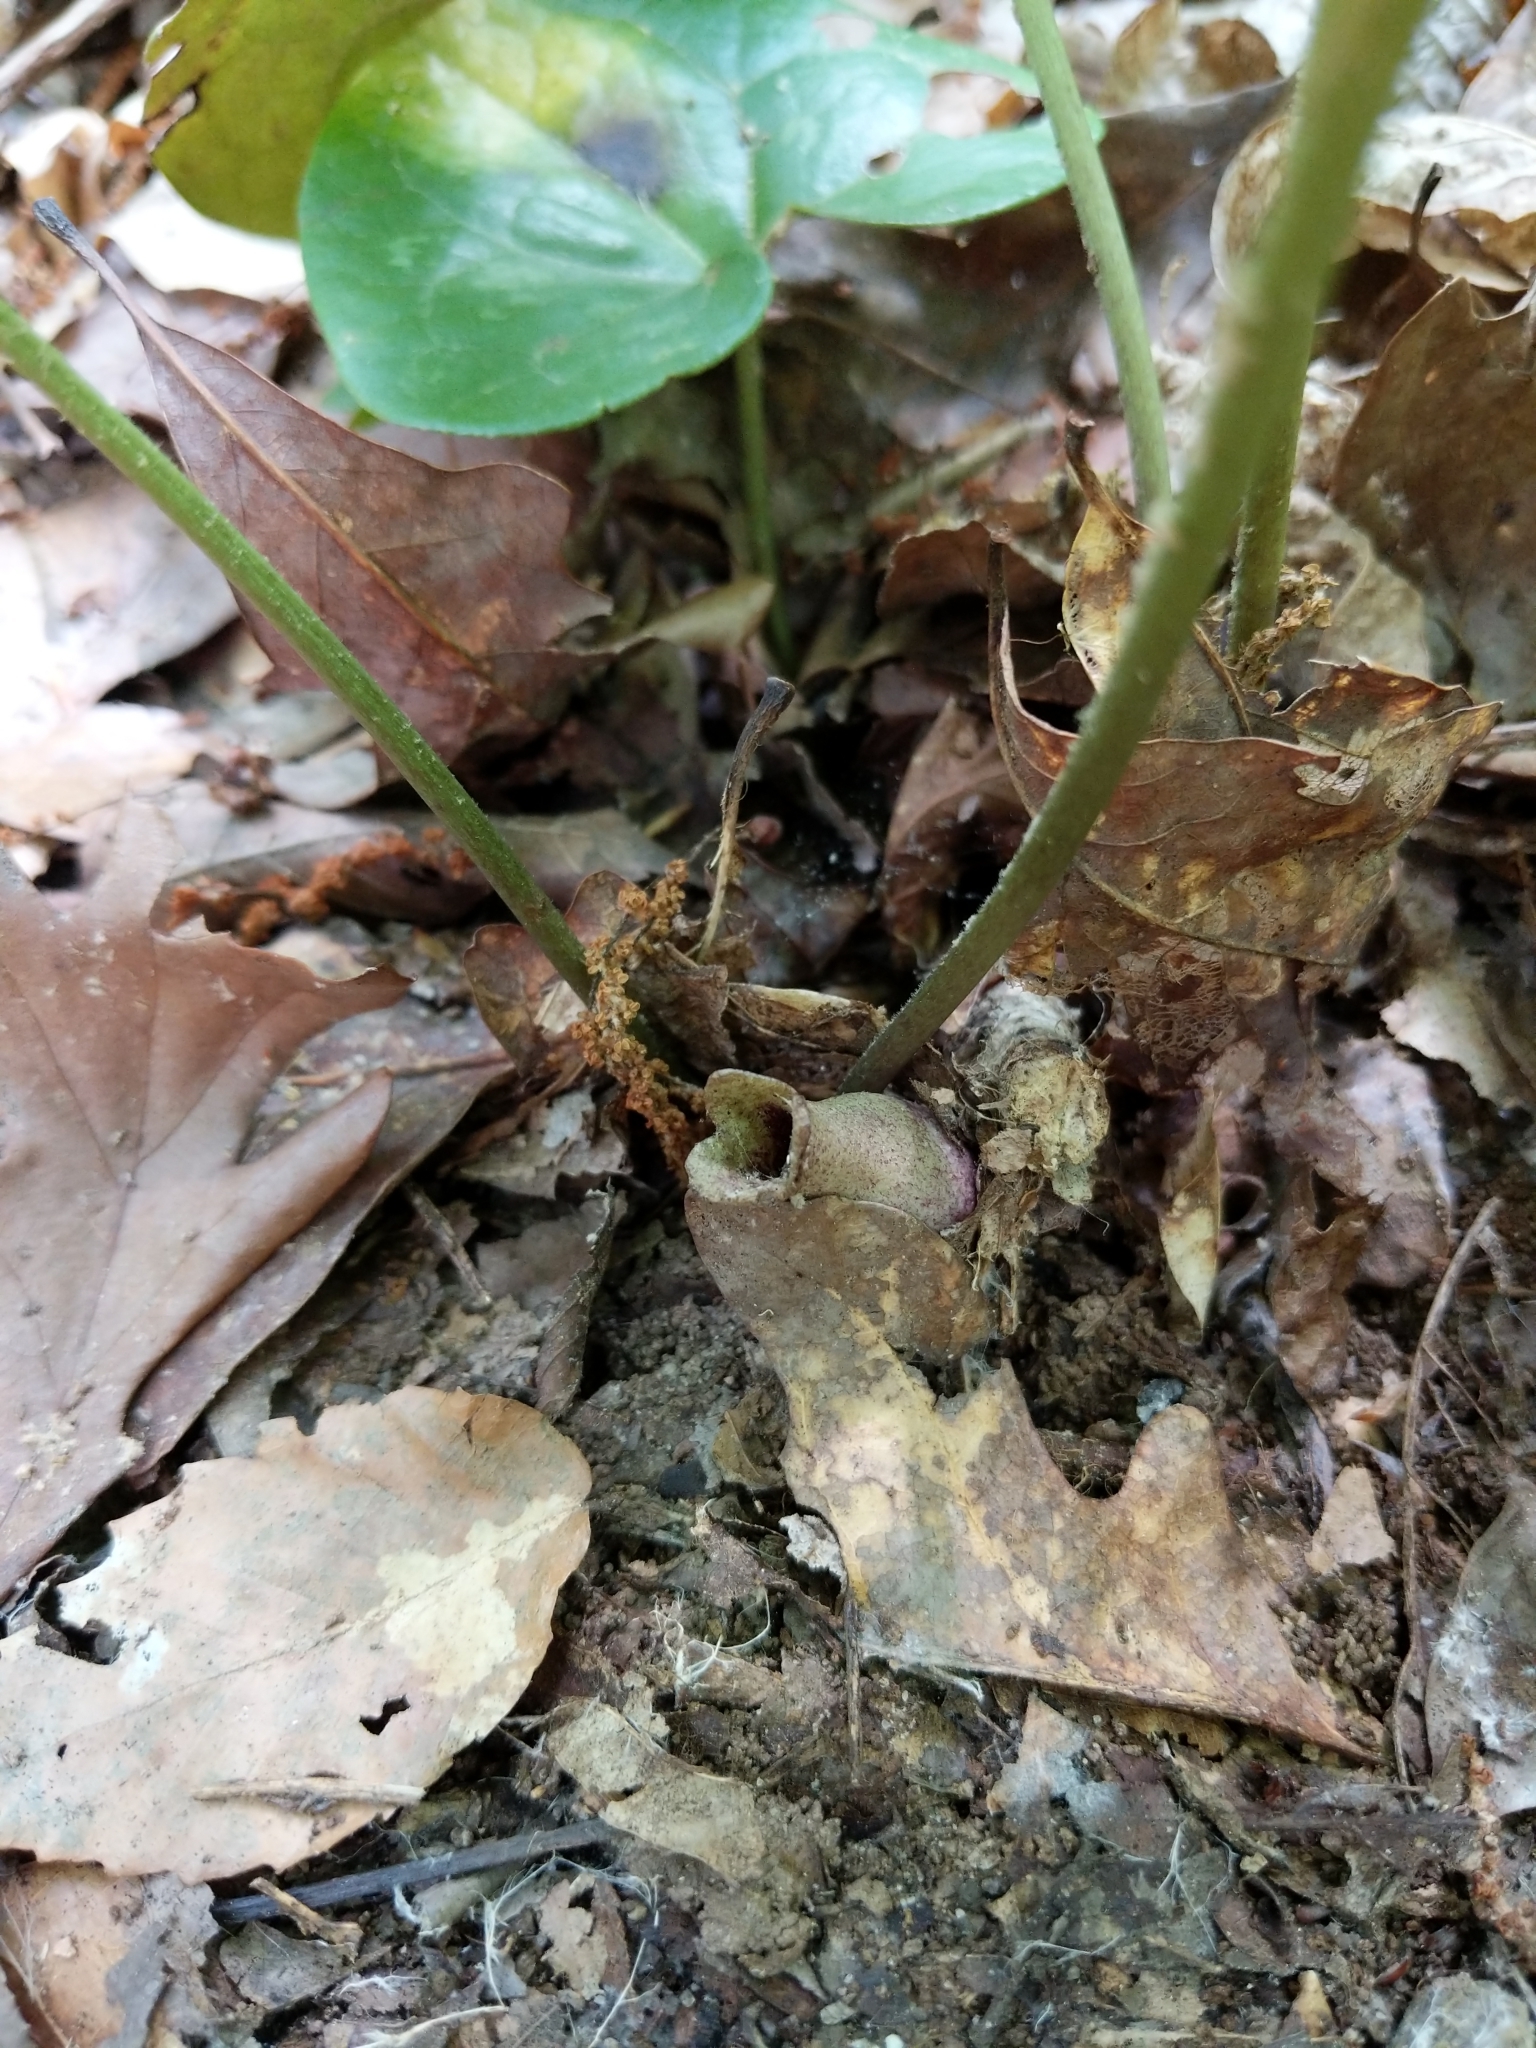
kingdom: Plantae
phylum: Tracheophyta
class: Magnoliopsida
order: Piperales
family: Aristolochiaceae
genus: Hexastylis
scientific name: Hexastylis arifolia
